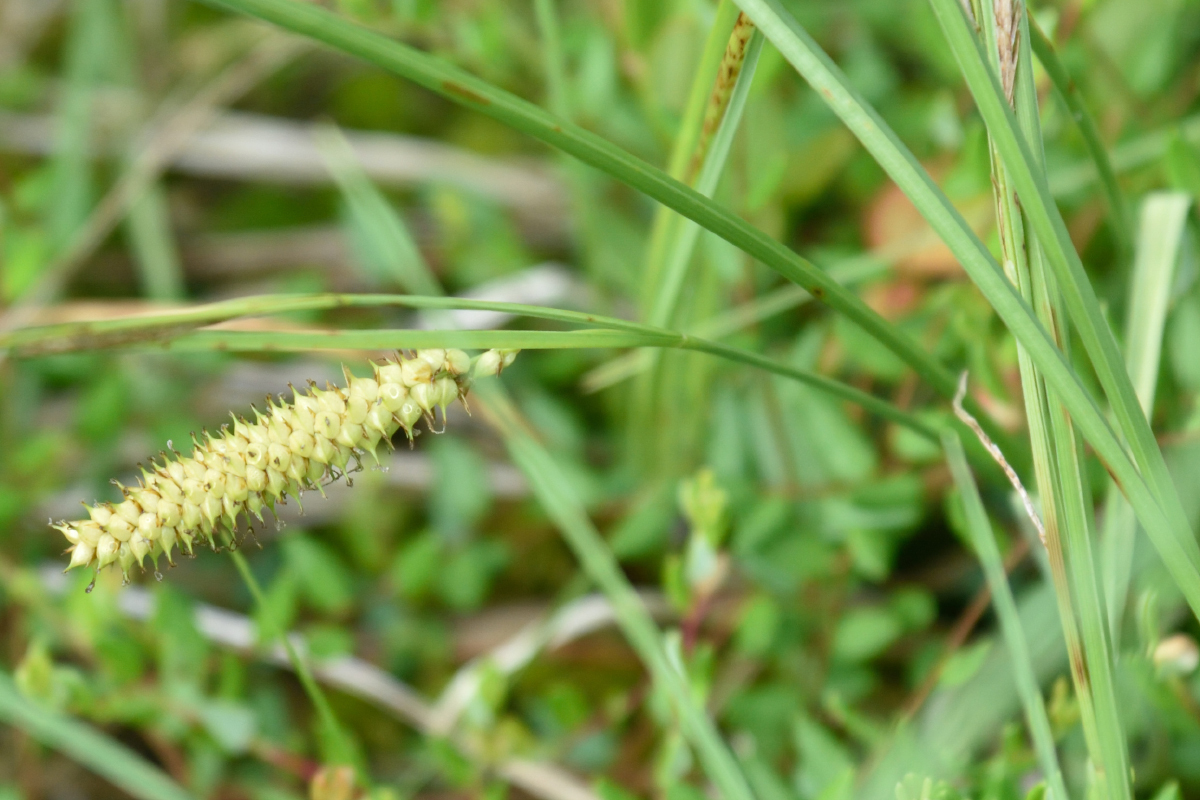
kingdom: Plantae
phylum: Tracheophyta
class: Liliopsida
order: Poales
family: Cyperaceae
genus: Carex
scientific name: Carex rostrata
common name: Bottle sedge
